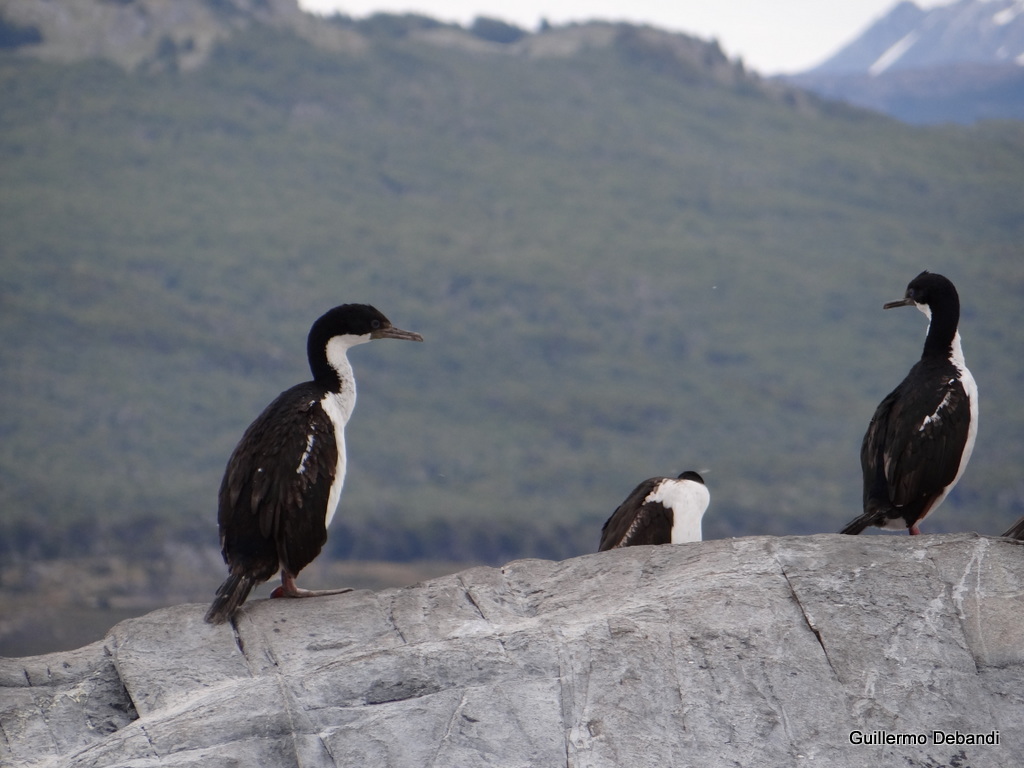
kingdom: Animalia
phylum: Chordata
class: Aves
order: Suliformes
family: Phalacrocoracidae
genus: Leucocarbo
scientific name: Leucocarbo atriceps
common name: Imperial shag
